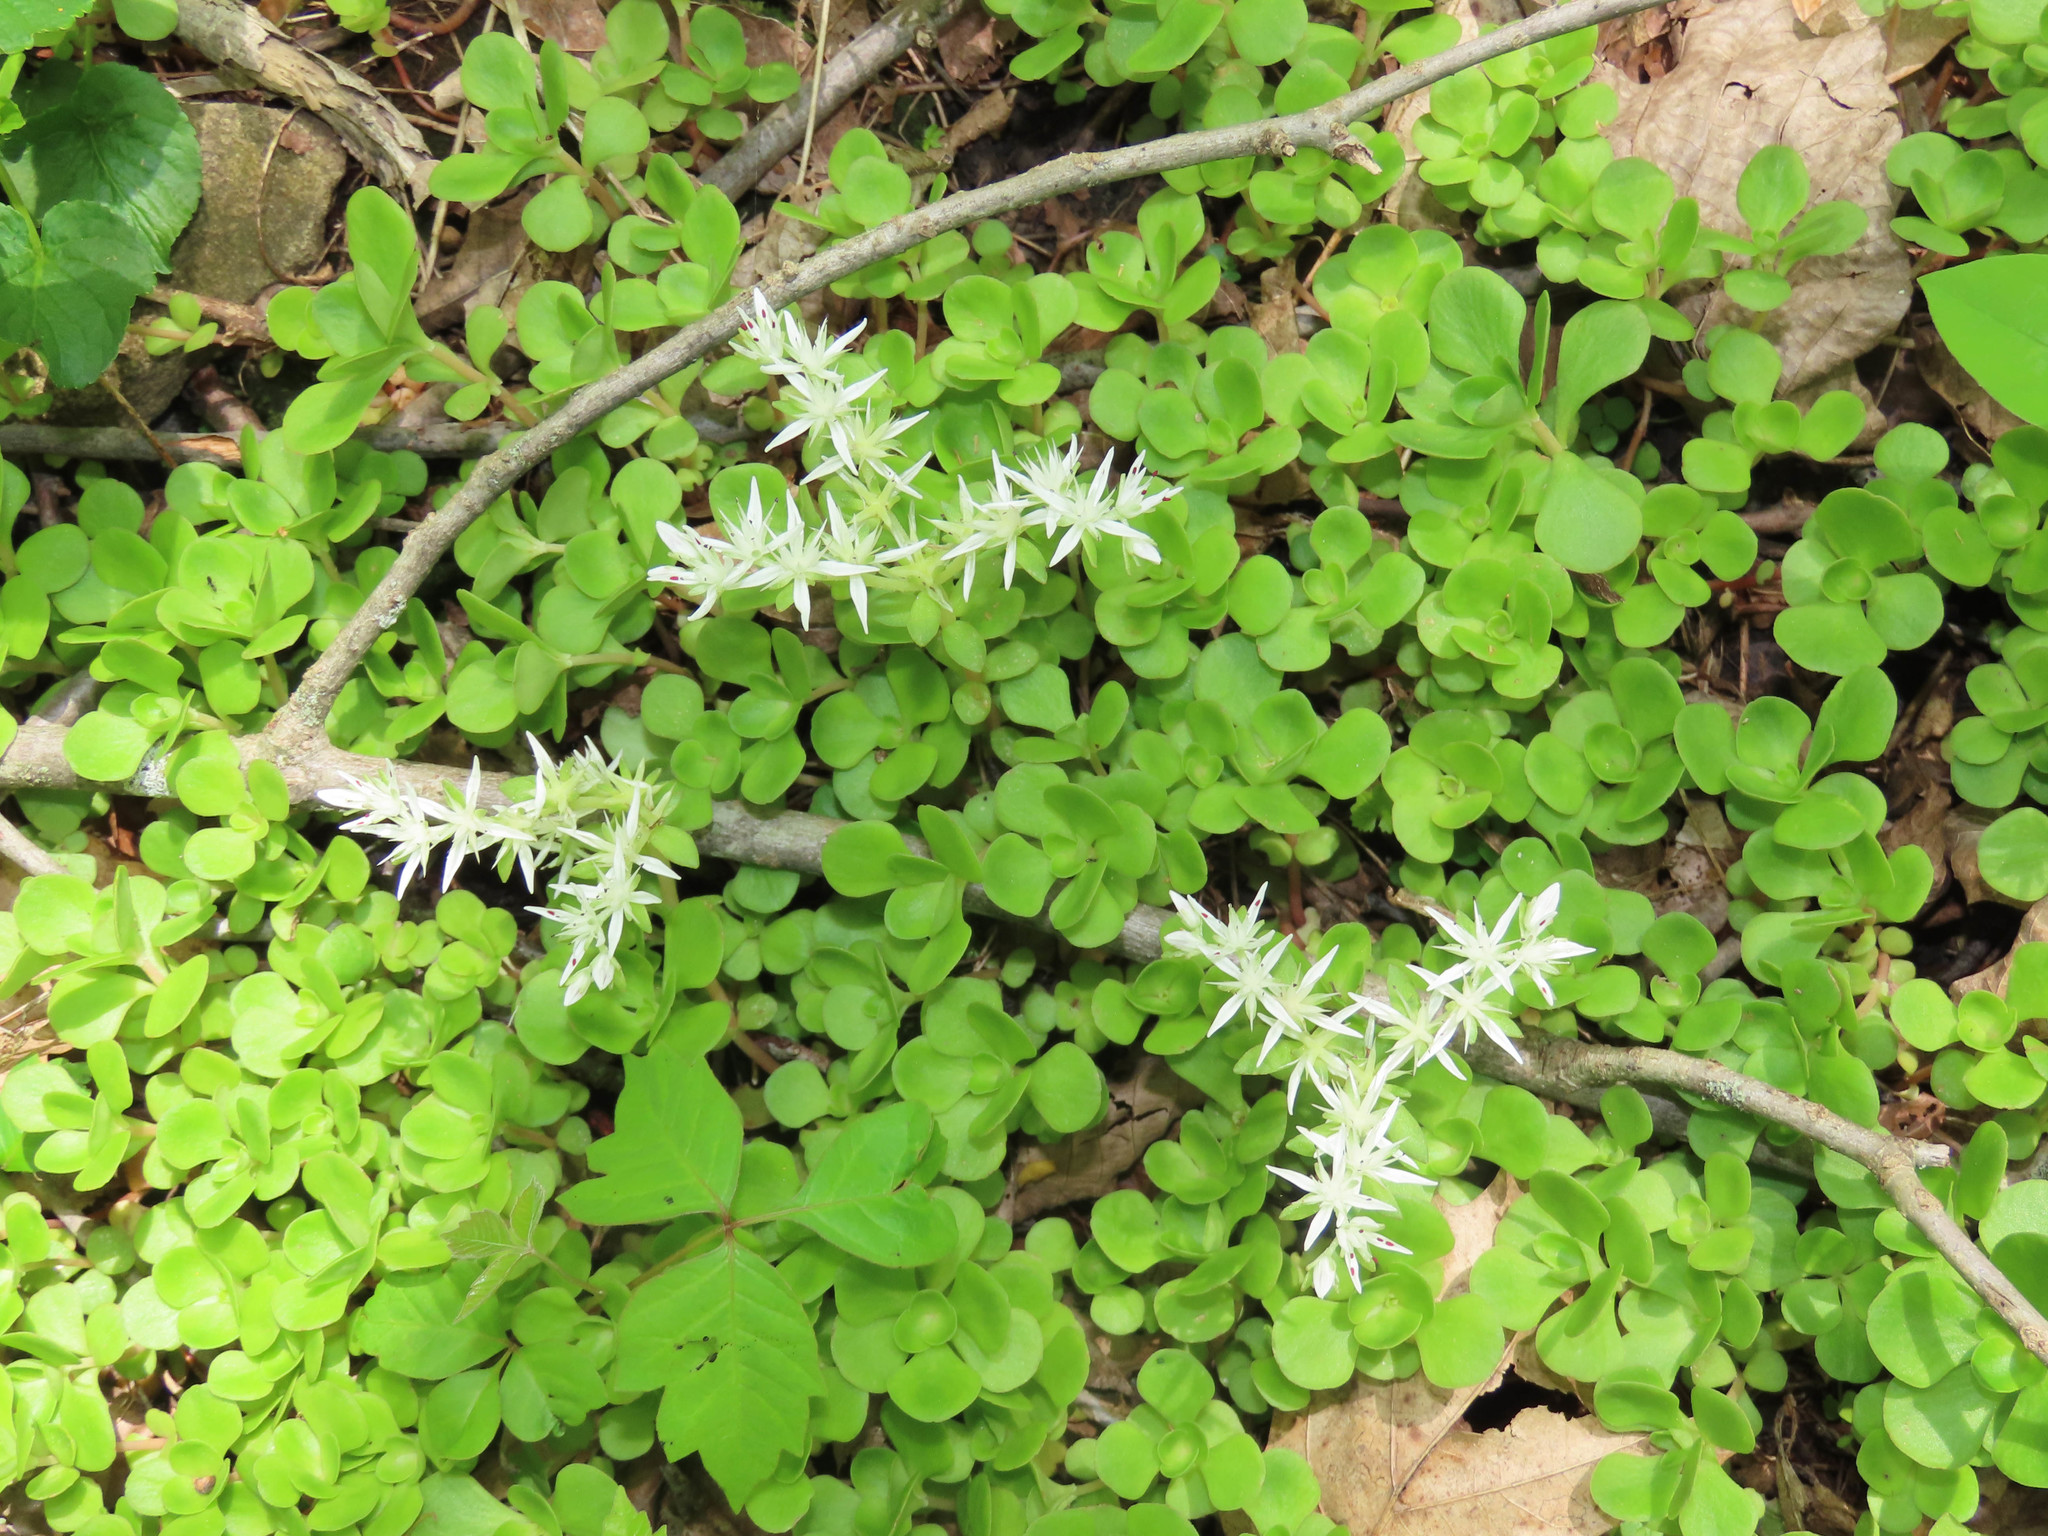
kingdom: Plantae
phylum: Tracheophyta
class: Magnoliopsida
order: Saxifragales
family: Crassulaceae
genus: Sedum
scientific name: Sedum ternatum
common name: Wild stonecrop
